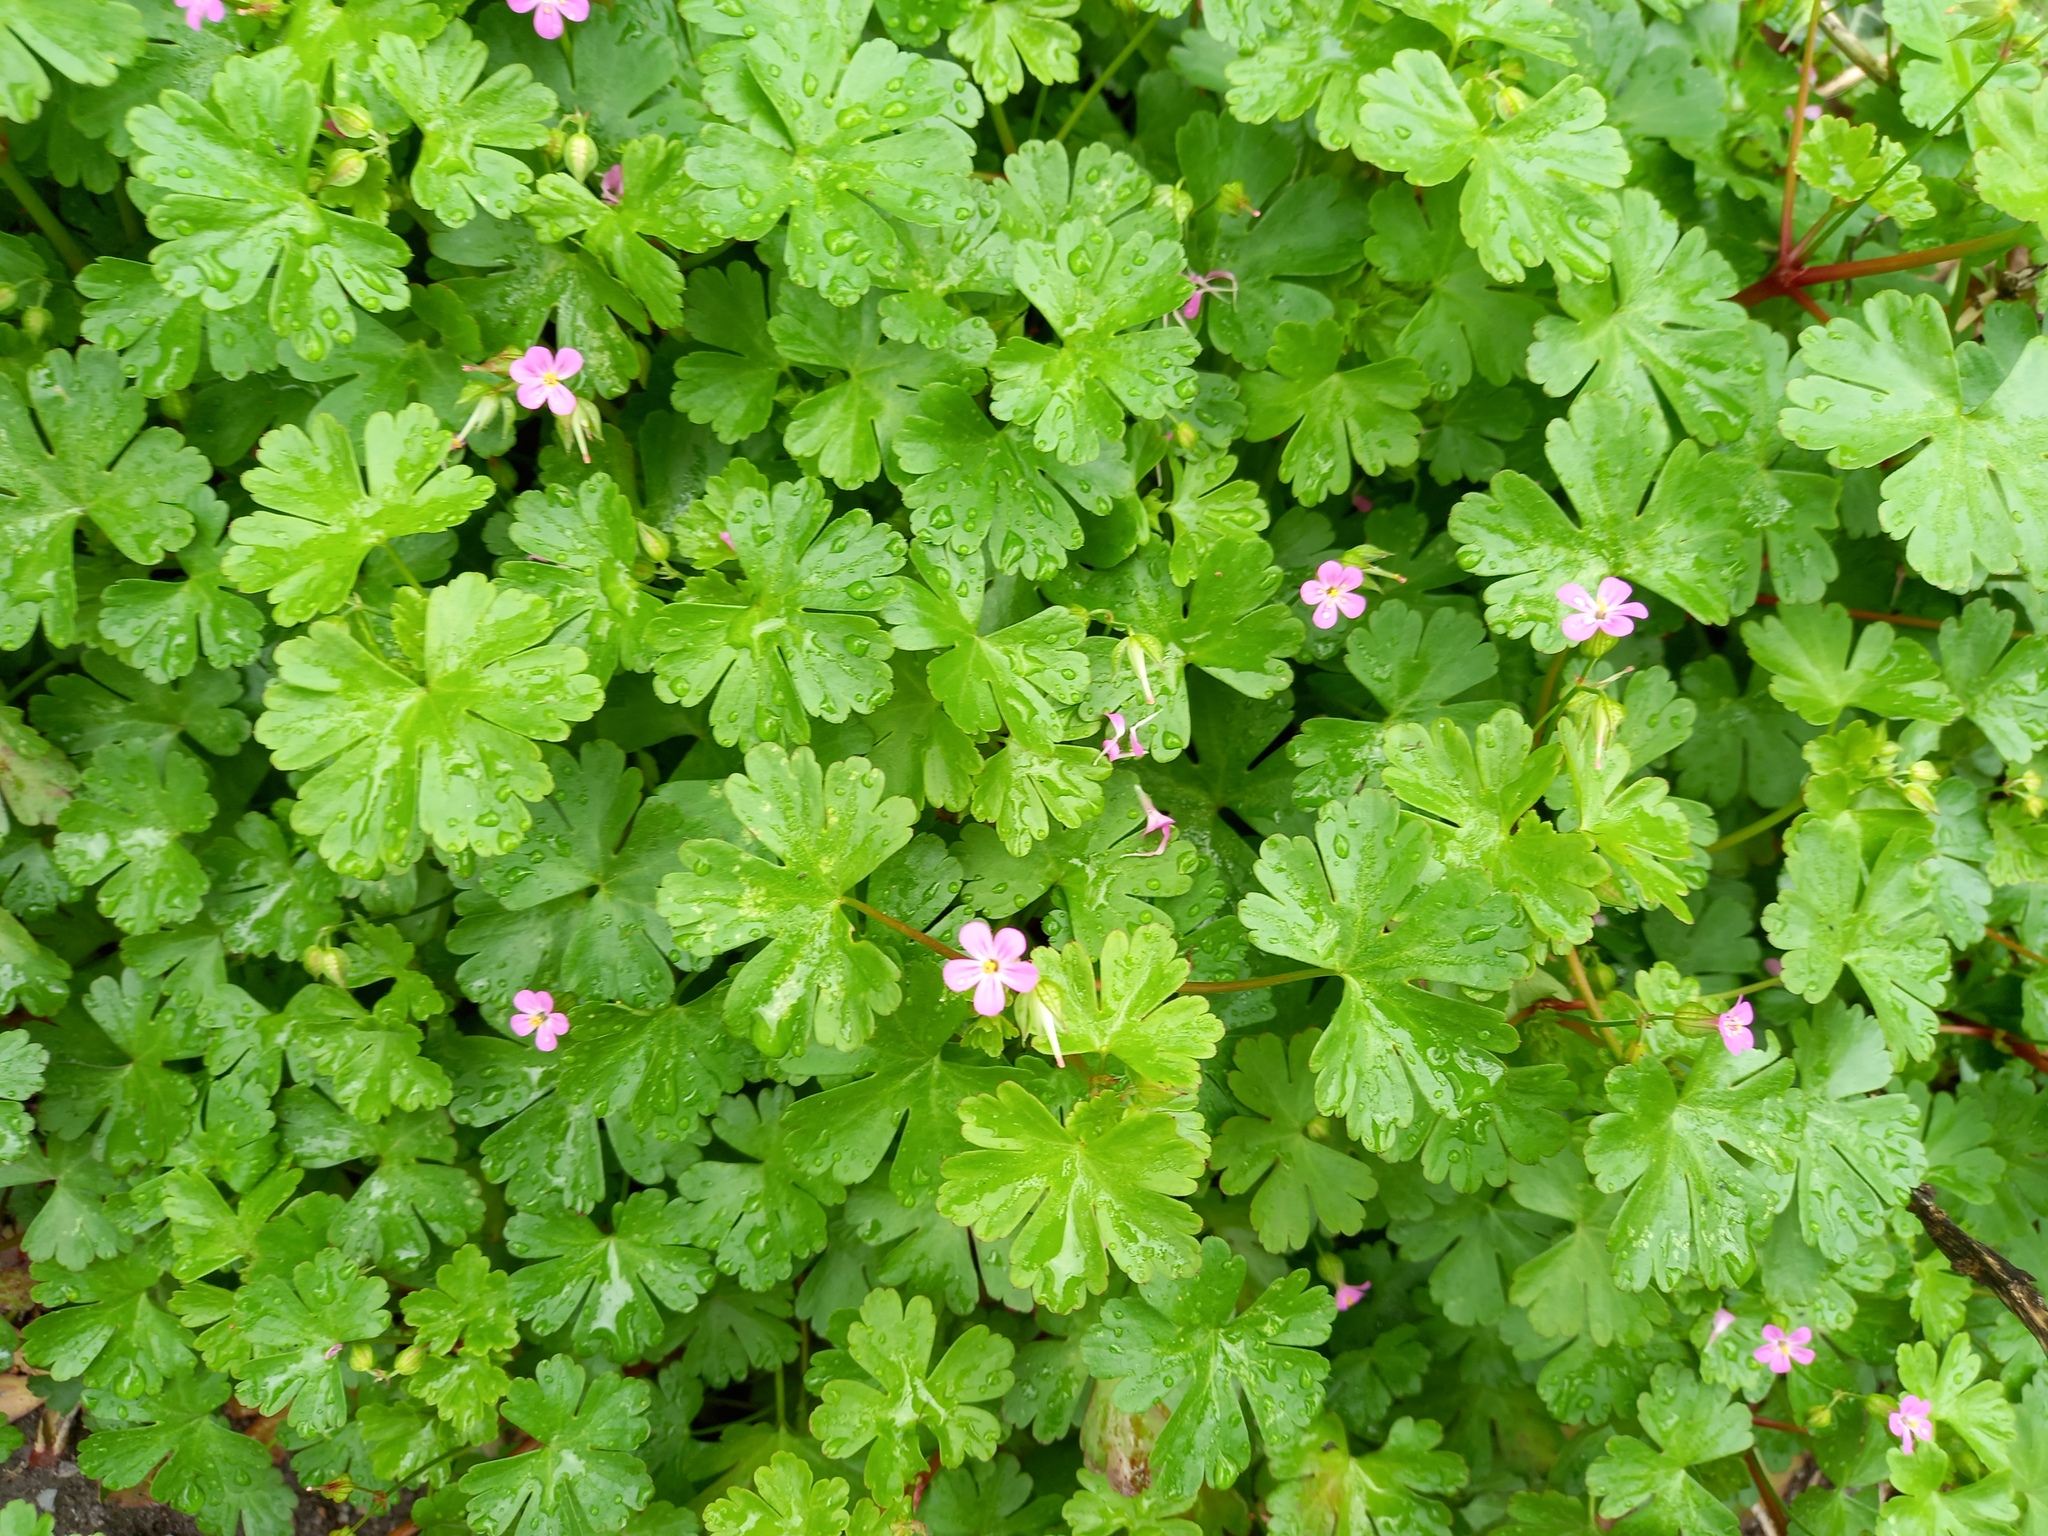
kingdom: Plantae
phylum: Tracheophyta
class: Magnoliopsida
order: Geraniales
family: Geraniaceae
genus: Geranium
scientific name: Geranium lucidum
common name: Shining crane's-bill
